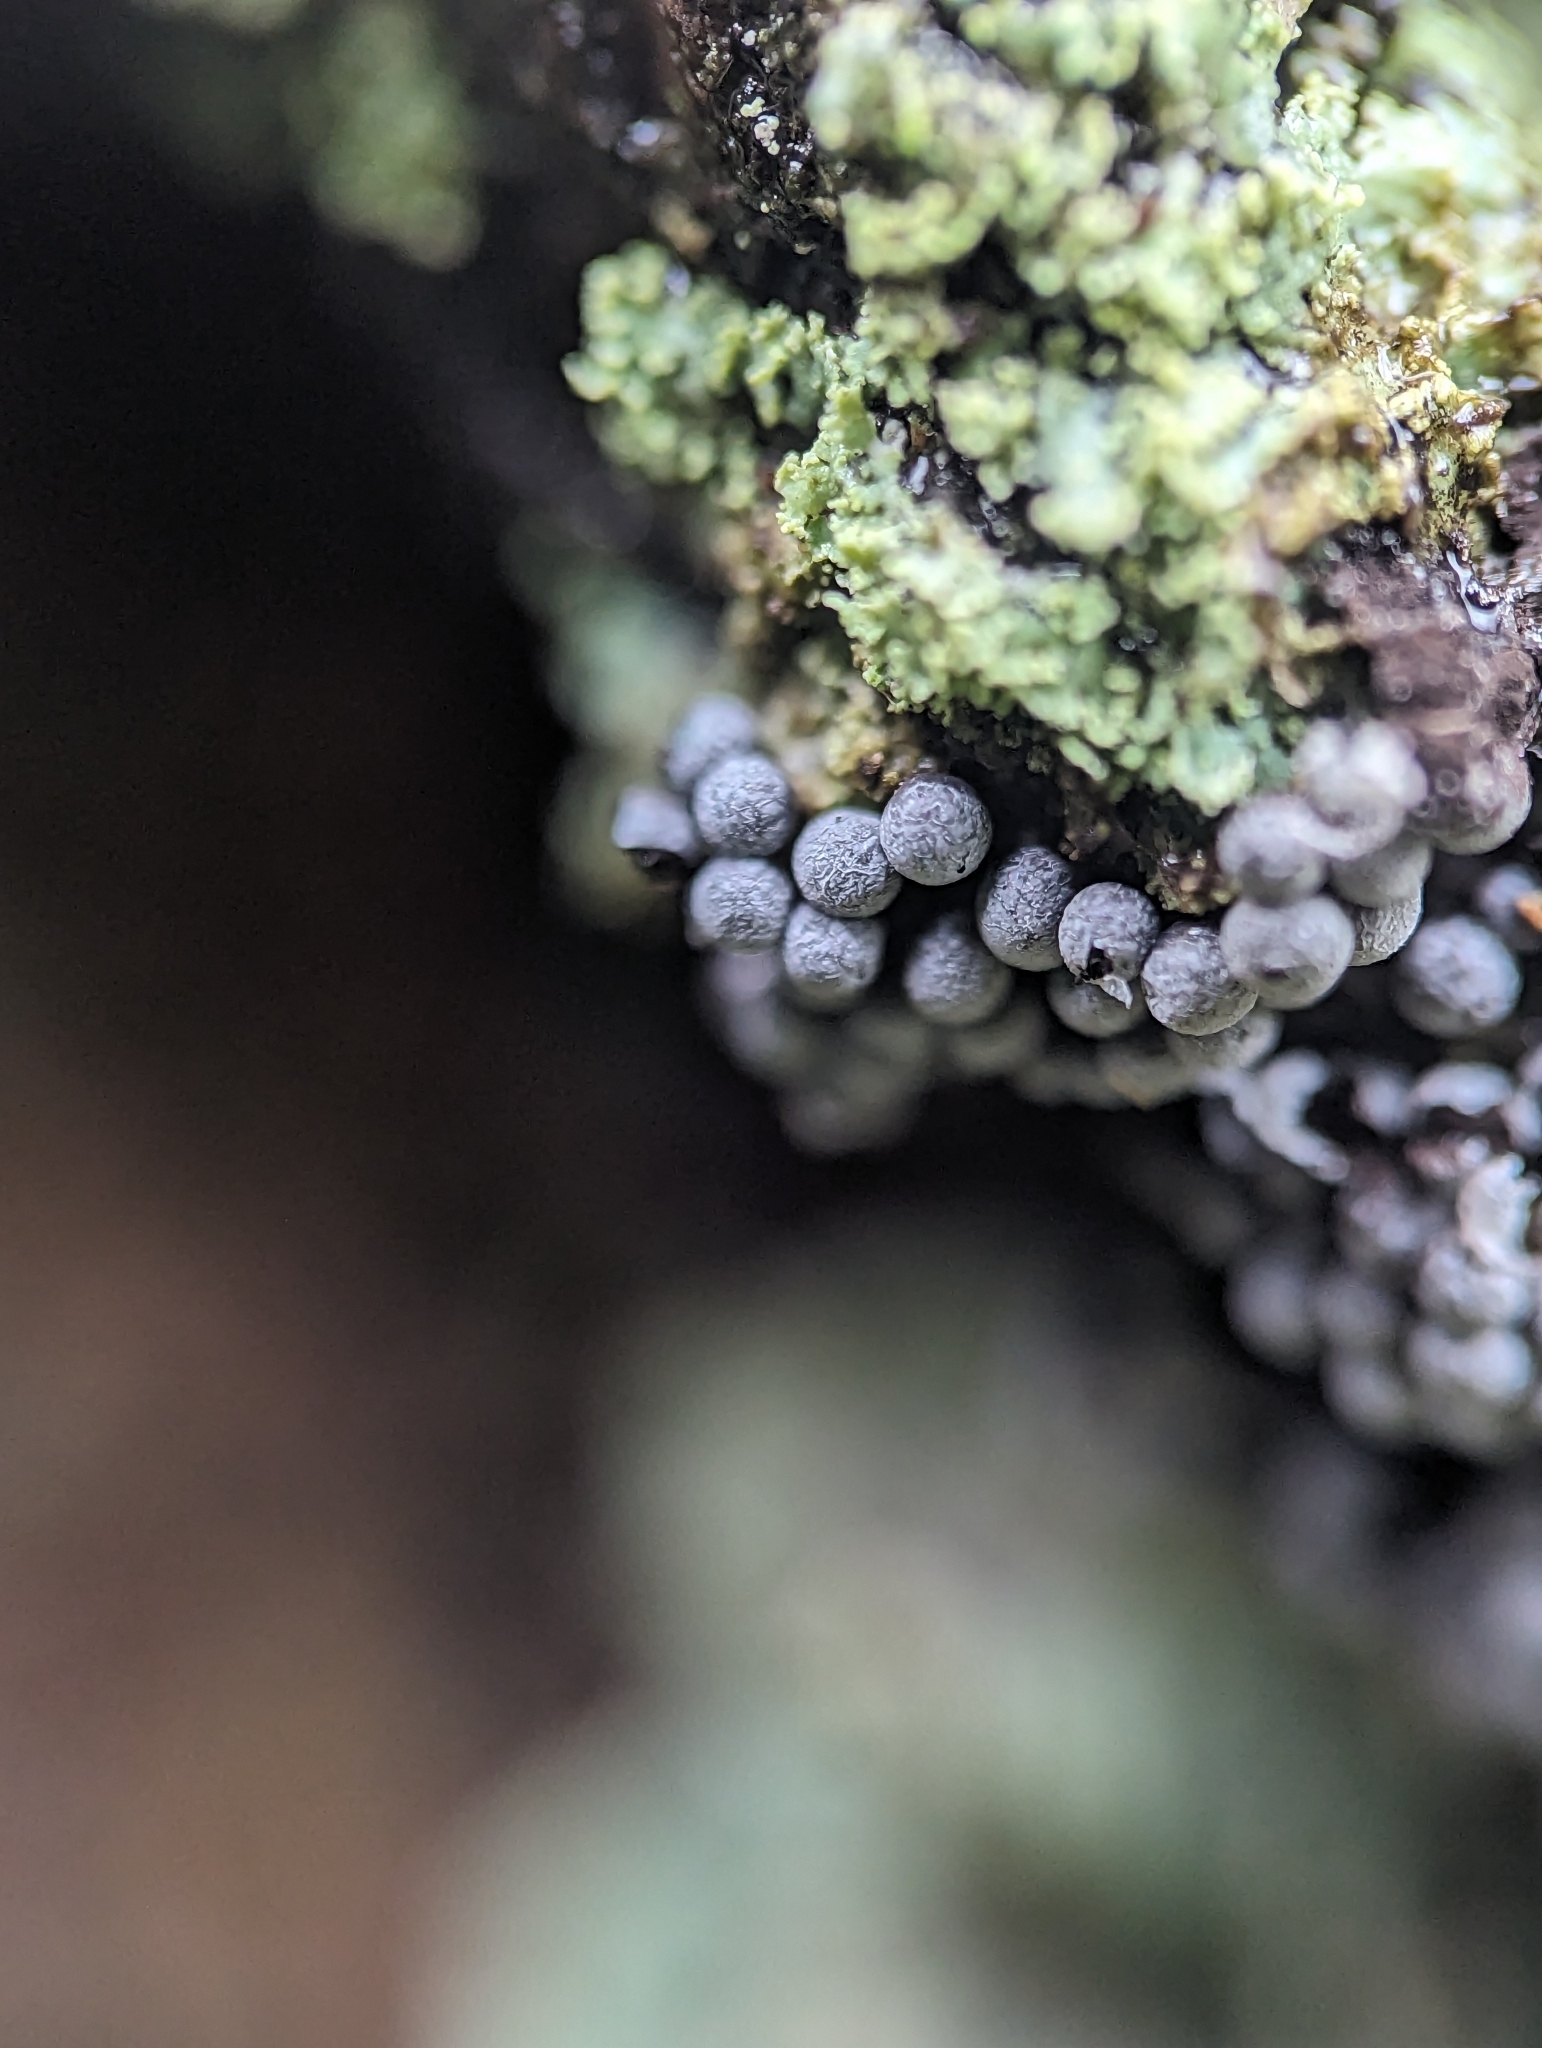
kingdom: Protozoa
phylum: Mycetozoa
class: Myxomycetes
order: Physarales
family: Physaraceae
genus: Badhamia
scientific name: Badhamia capsulifera
